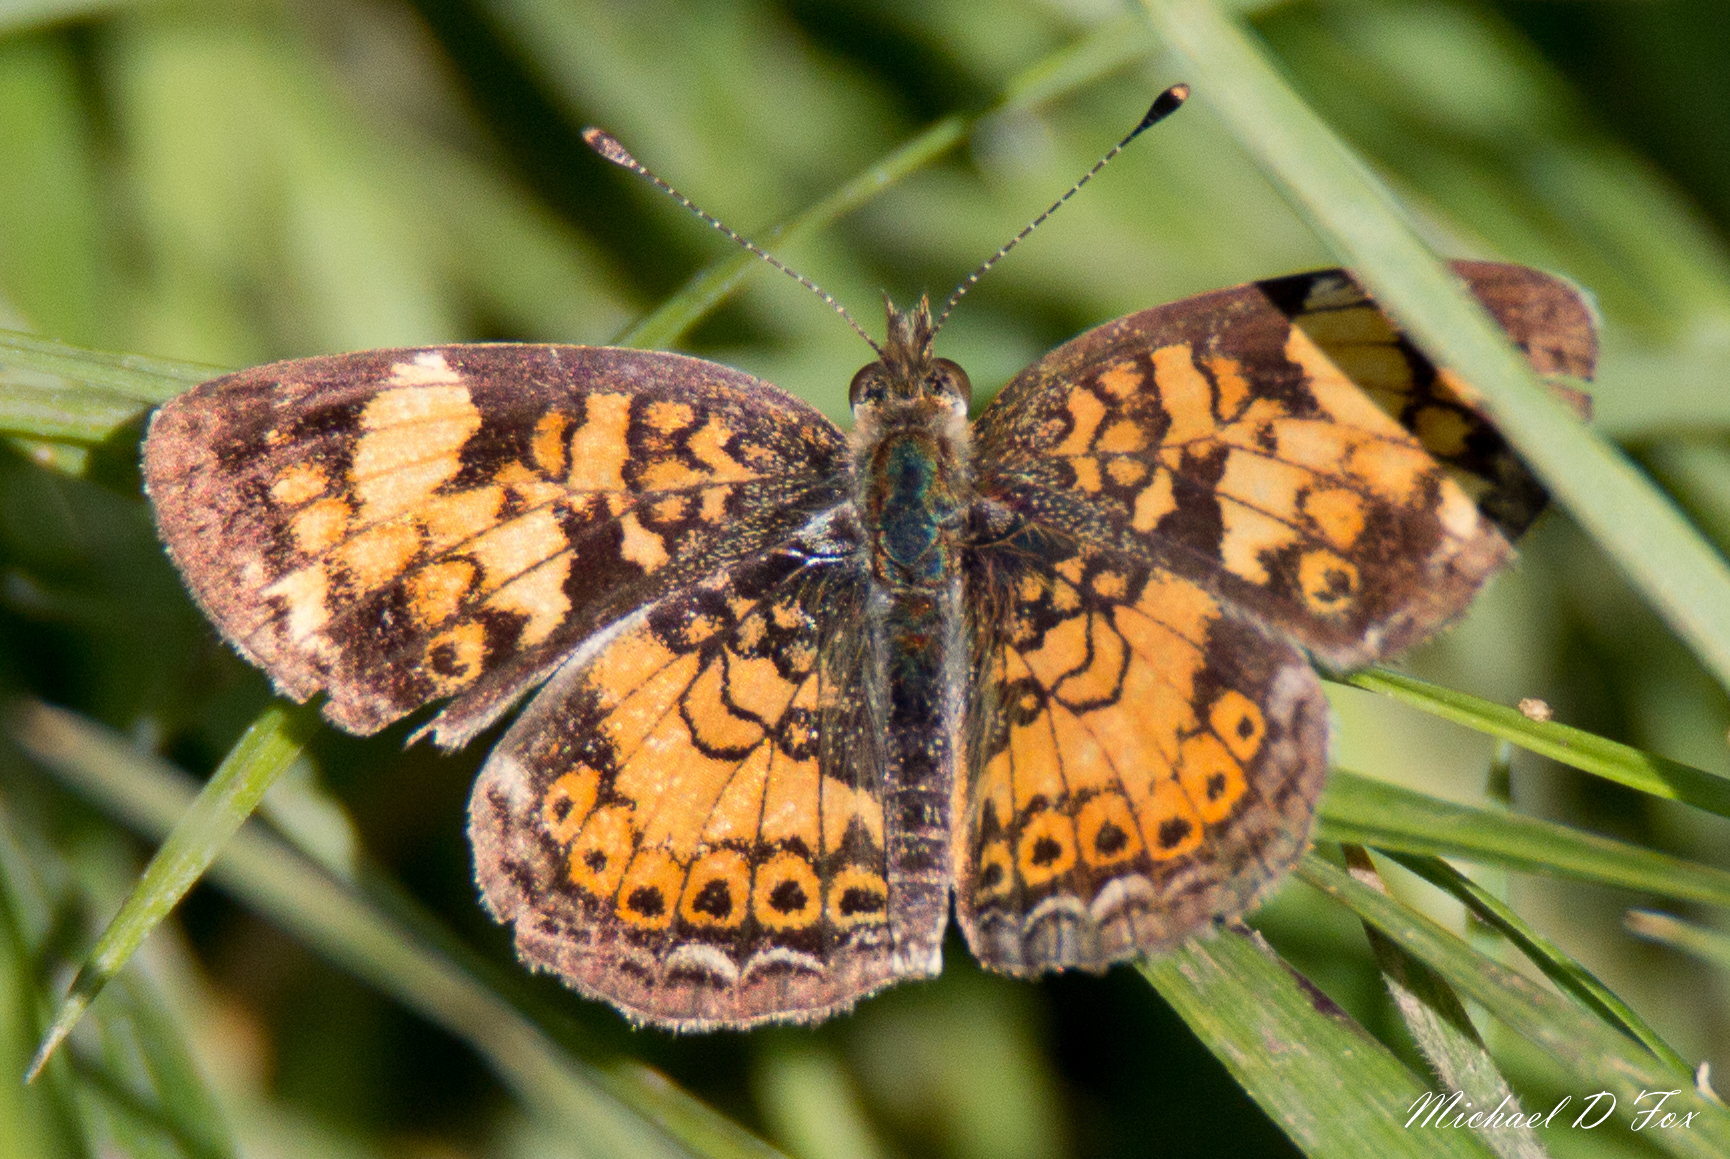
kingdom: Animalia
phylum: Arthropoda
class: Insecta
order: Lepidoptera
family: Nymphalidae
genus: Phyciodes
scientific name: Phyciodes tharos
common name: Pearl crescent
